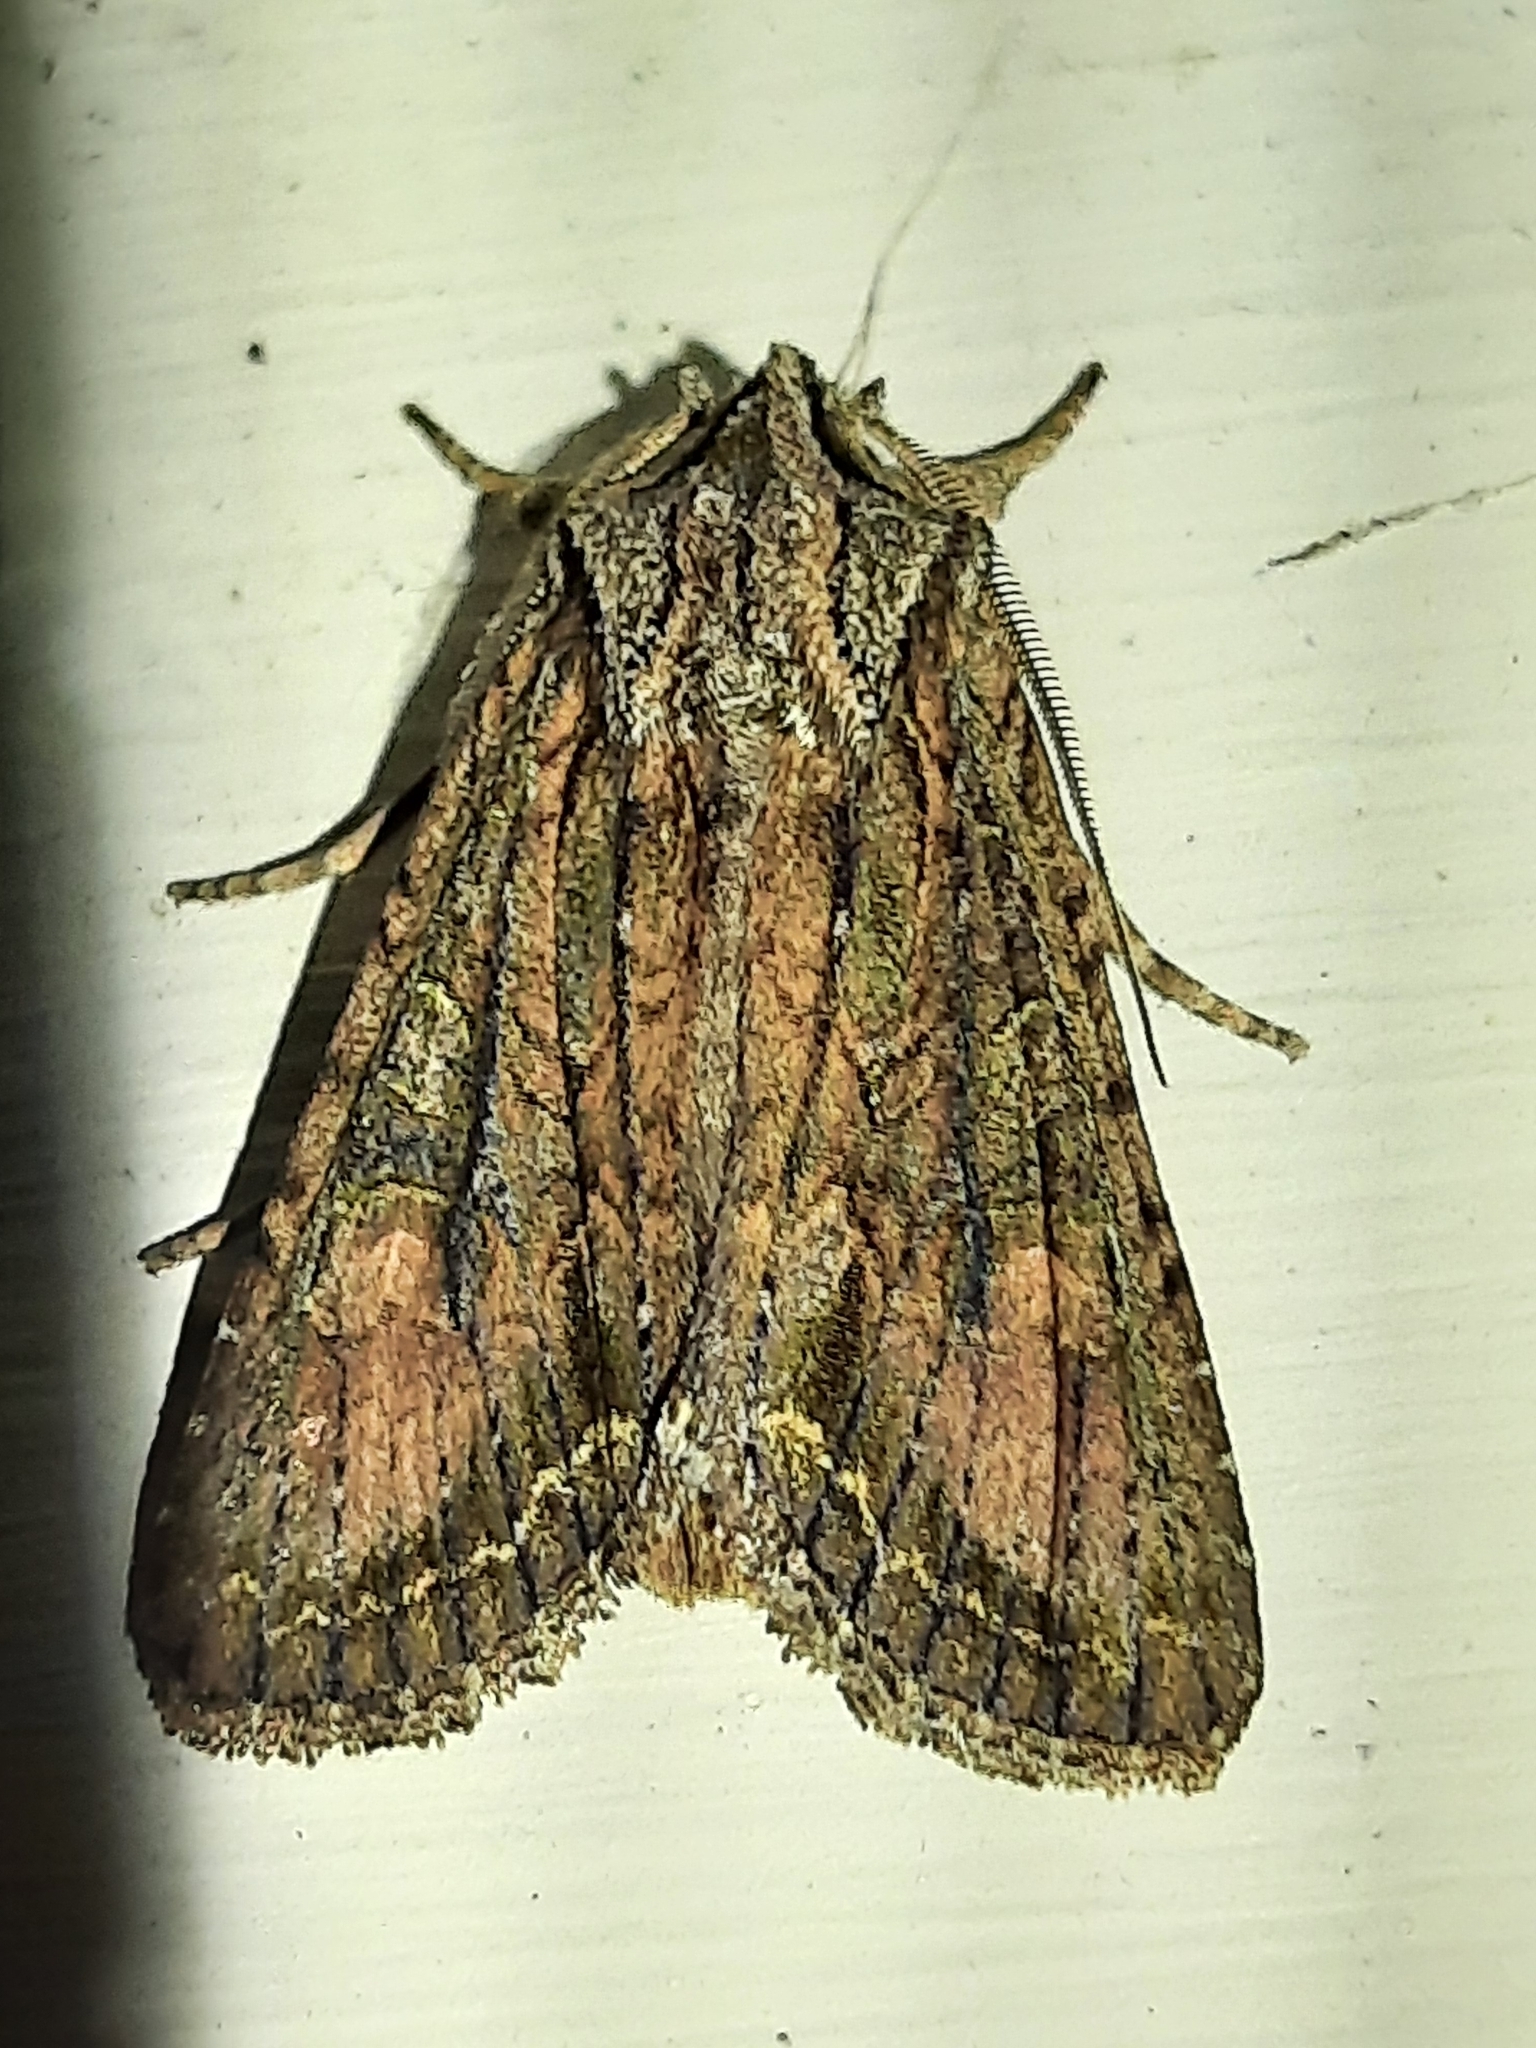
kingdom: Animalia
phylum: Arthropoda
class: Insecta
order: Lepidoptera
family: Noctuidae
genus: Ichneutica
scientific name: Ichneutica mutans
